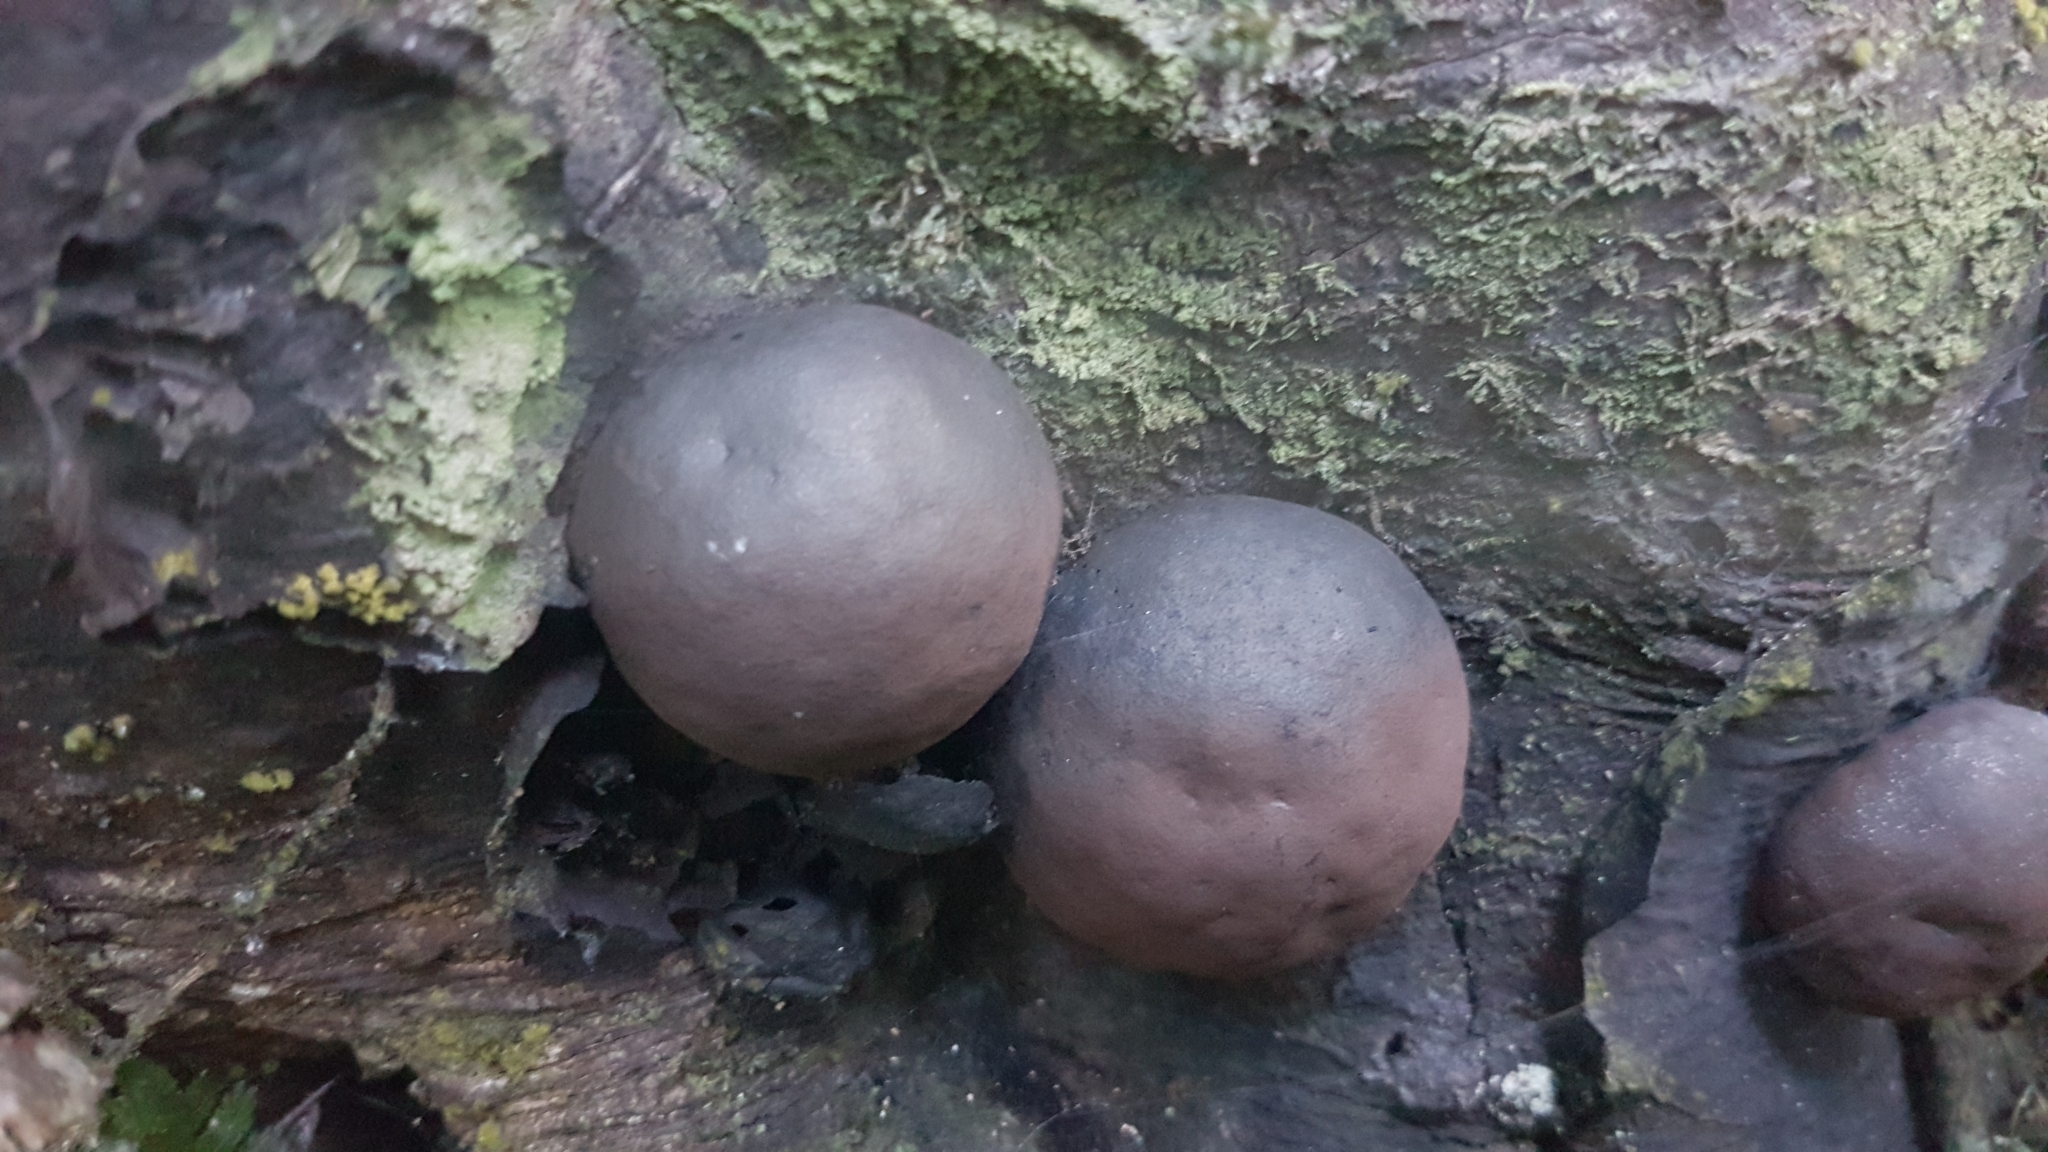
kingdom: Fungi
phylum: Ascomycota
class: Sordariomycetes
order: Xylariales
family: Hypoxylaceae
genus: Daldinia
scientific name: Daldinia
